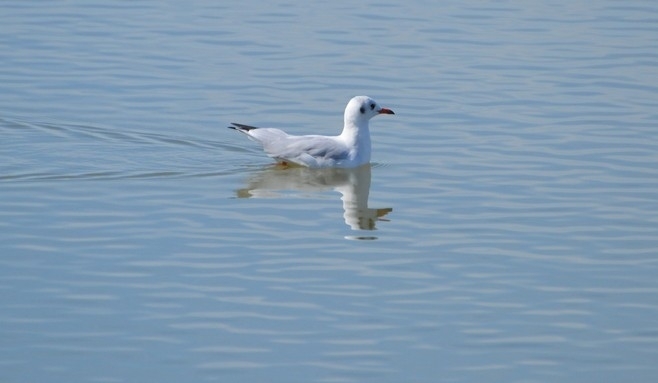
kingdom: Animalia
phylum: Chordata
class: Aves
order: Charadriiformes
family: Laridae
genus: Chroicocephalus
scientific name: Chroicocephalus ridibundus
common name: Black-headed gull
